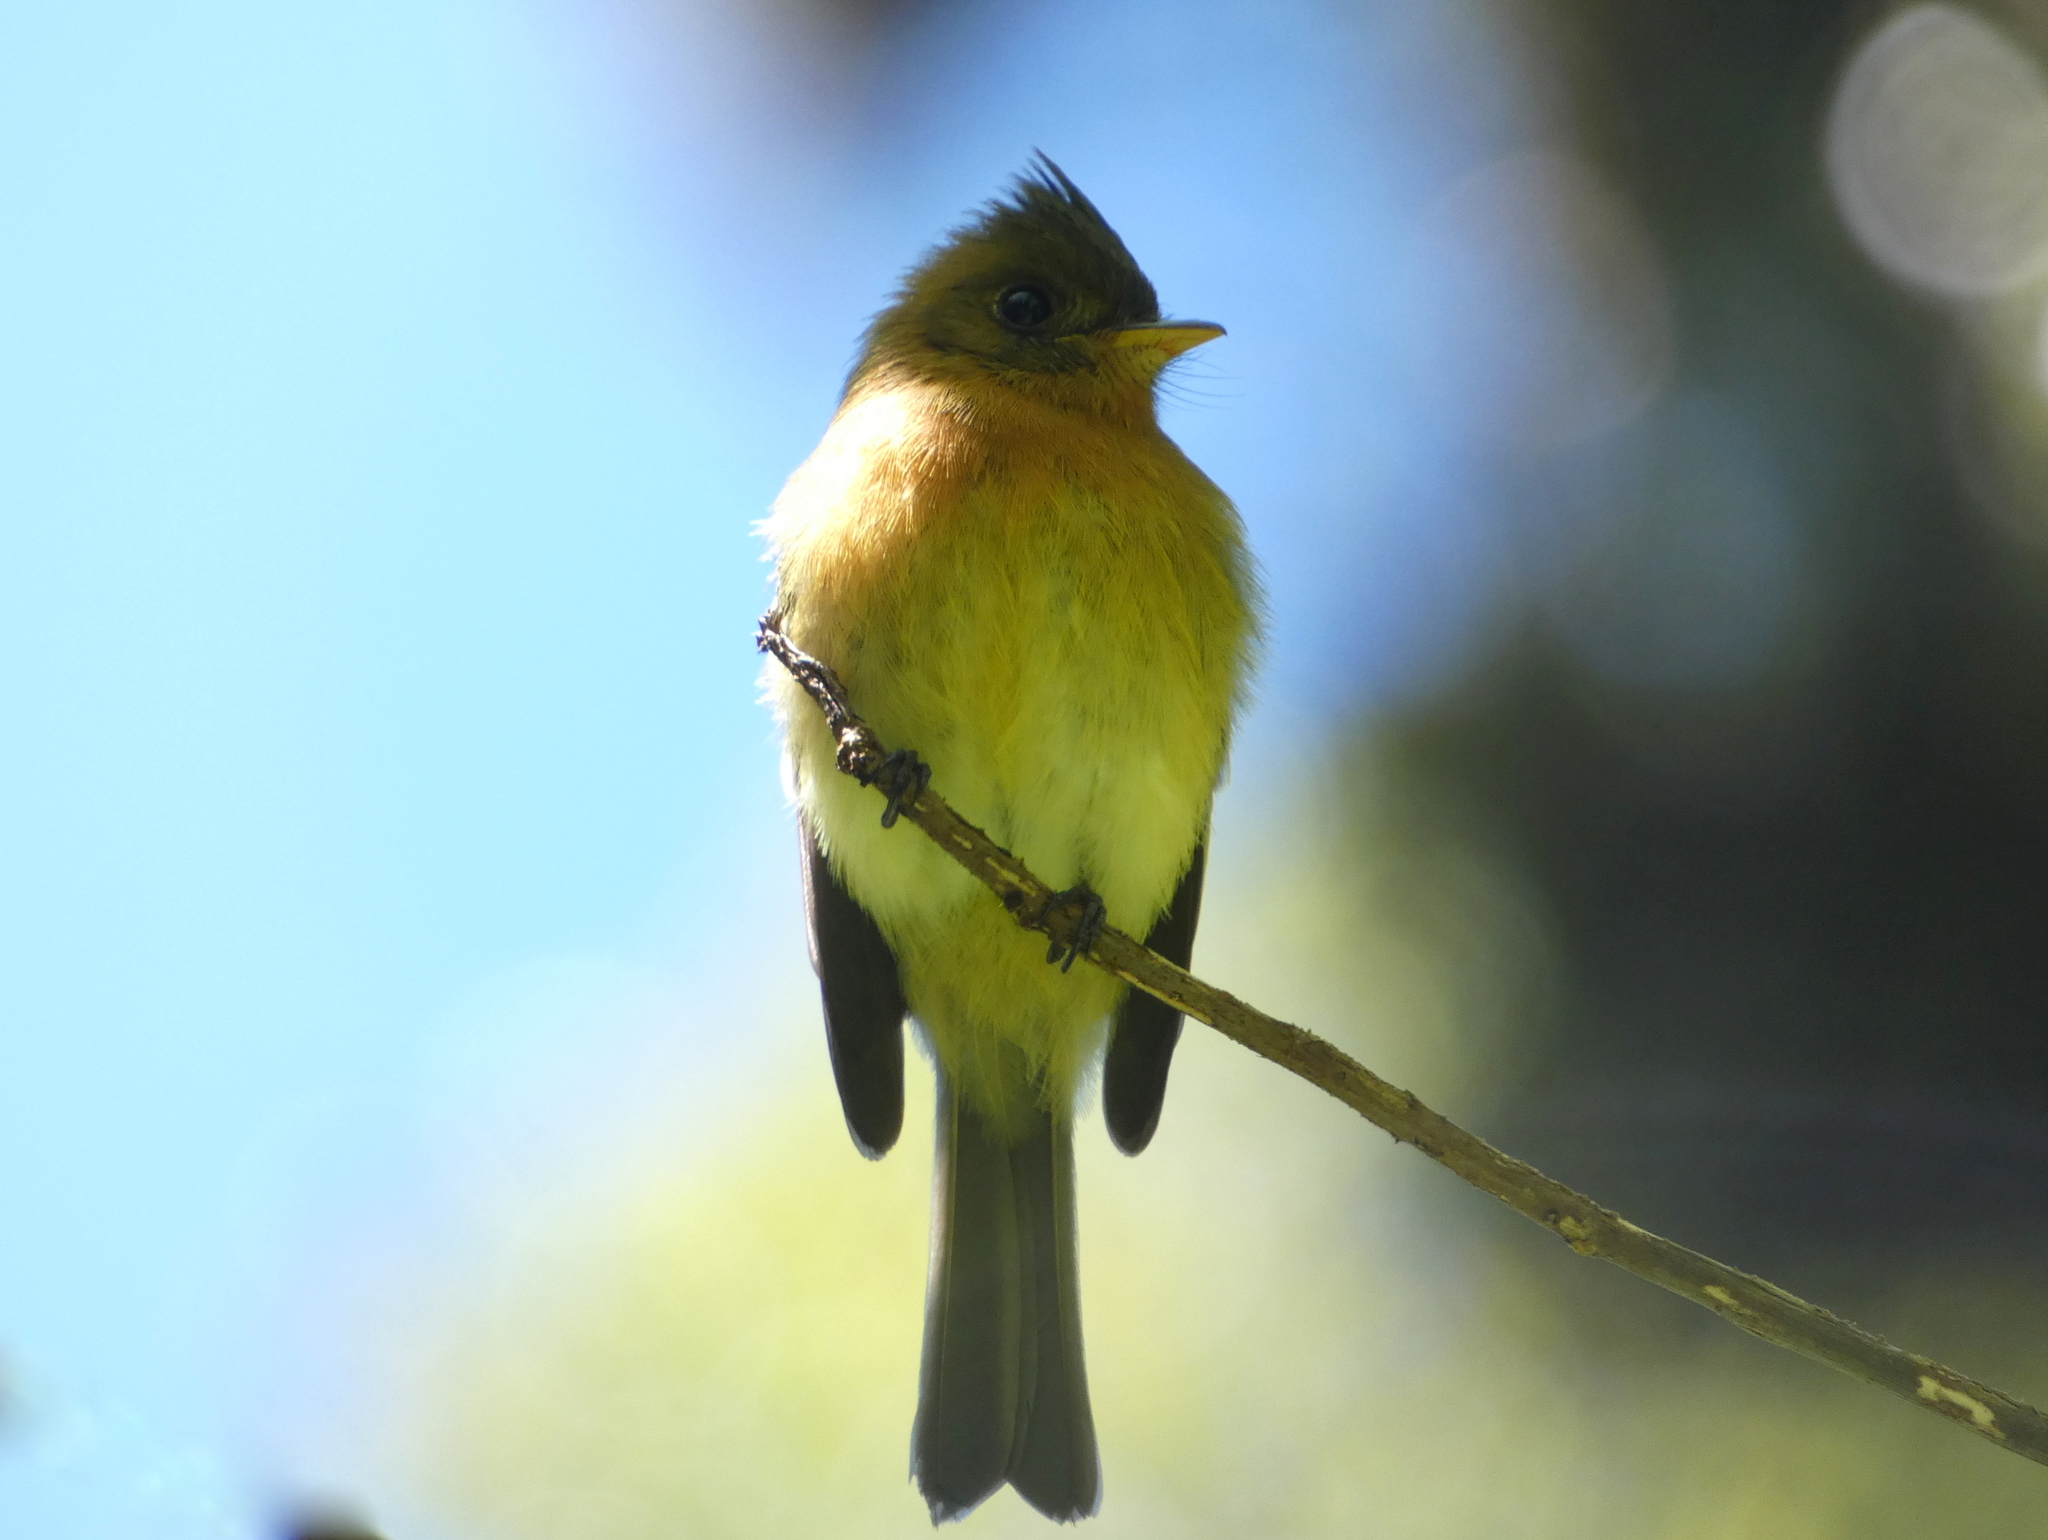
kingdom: Animalia
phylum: Chordata
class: Aves
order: Passeriformes
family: Tyrannidae
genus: Mitrephanes
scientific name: Mitrephanes phaeocercus
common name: Northern tufted flycatcher
